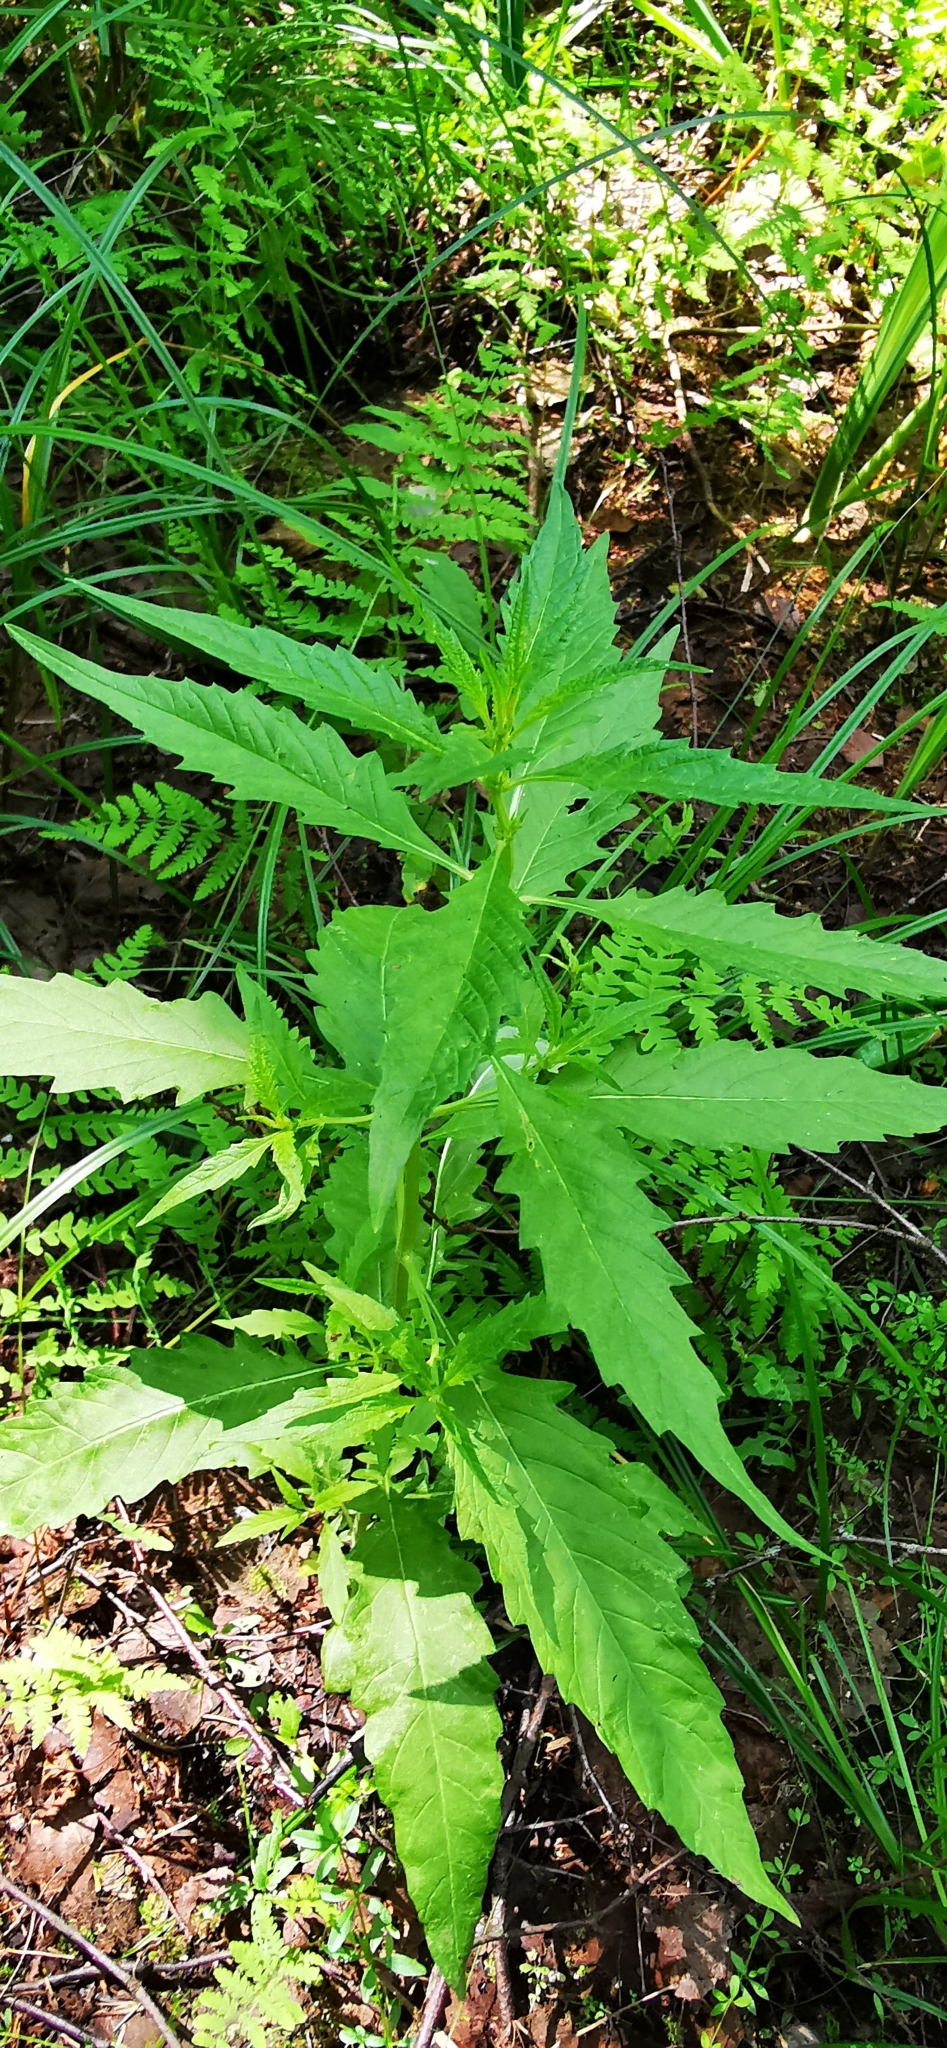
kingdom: Plantae
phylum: Tracheophyta
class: Magnoliopsida
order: Lamiales
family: Lamiaceae
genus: Lycopus
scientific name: Lycopus europaeus
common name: European bugleweed
